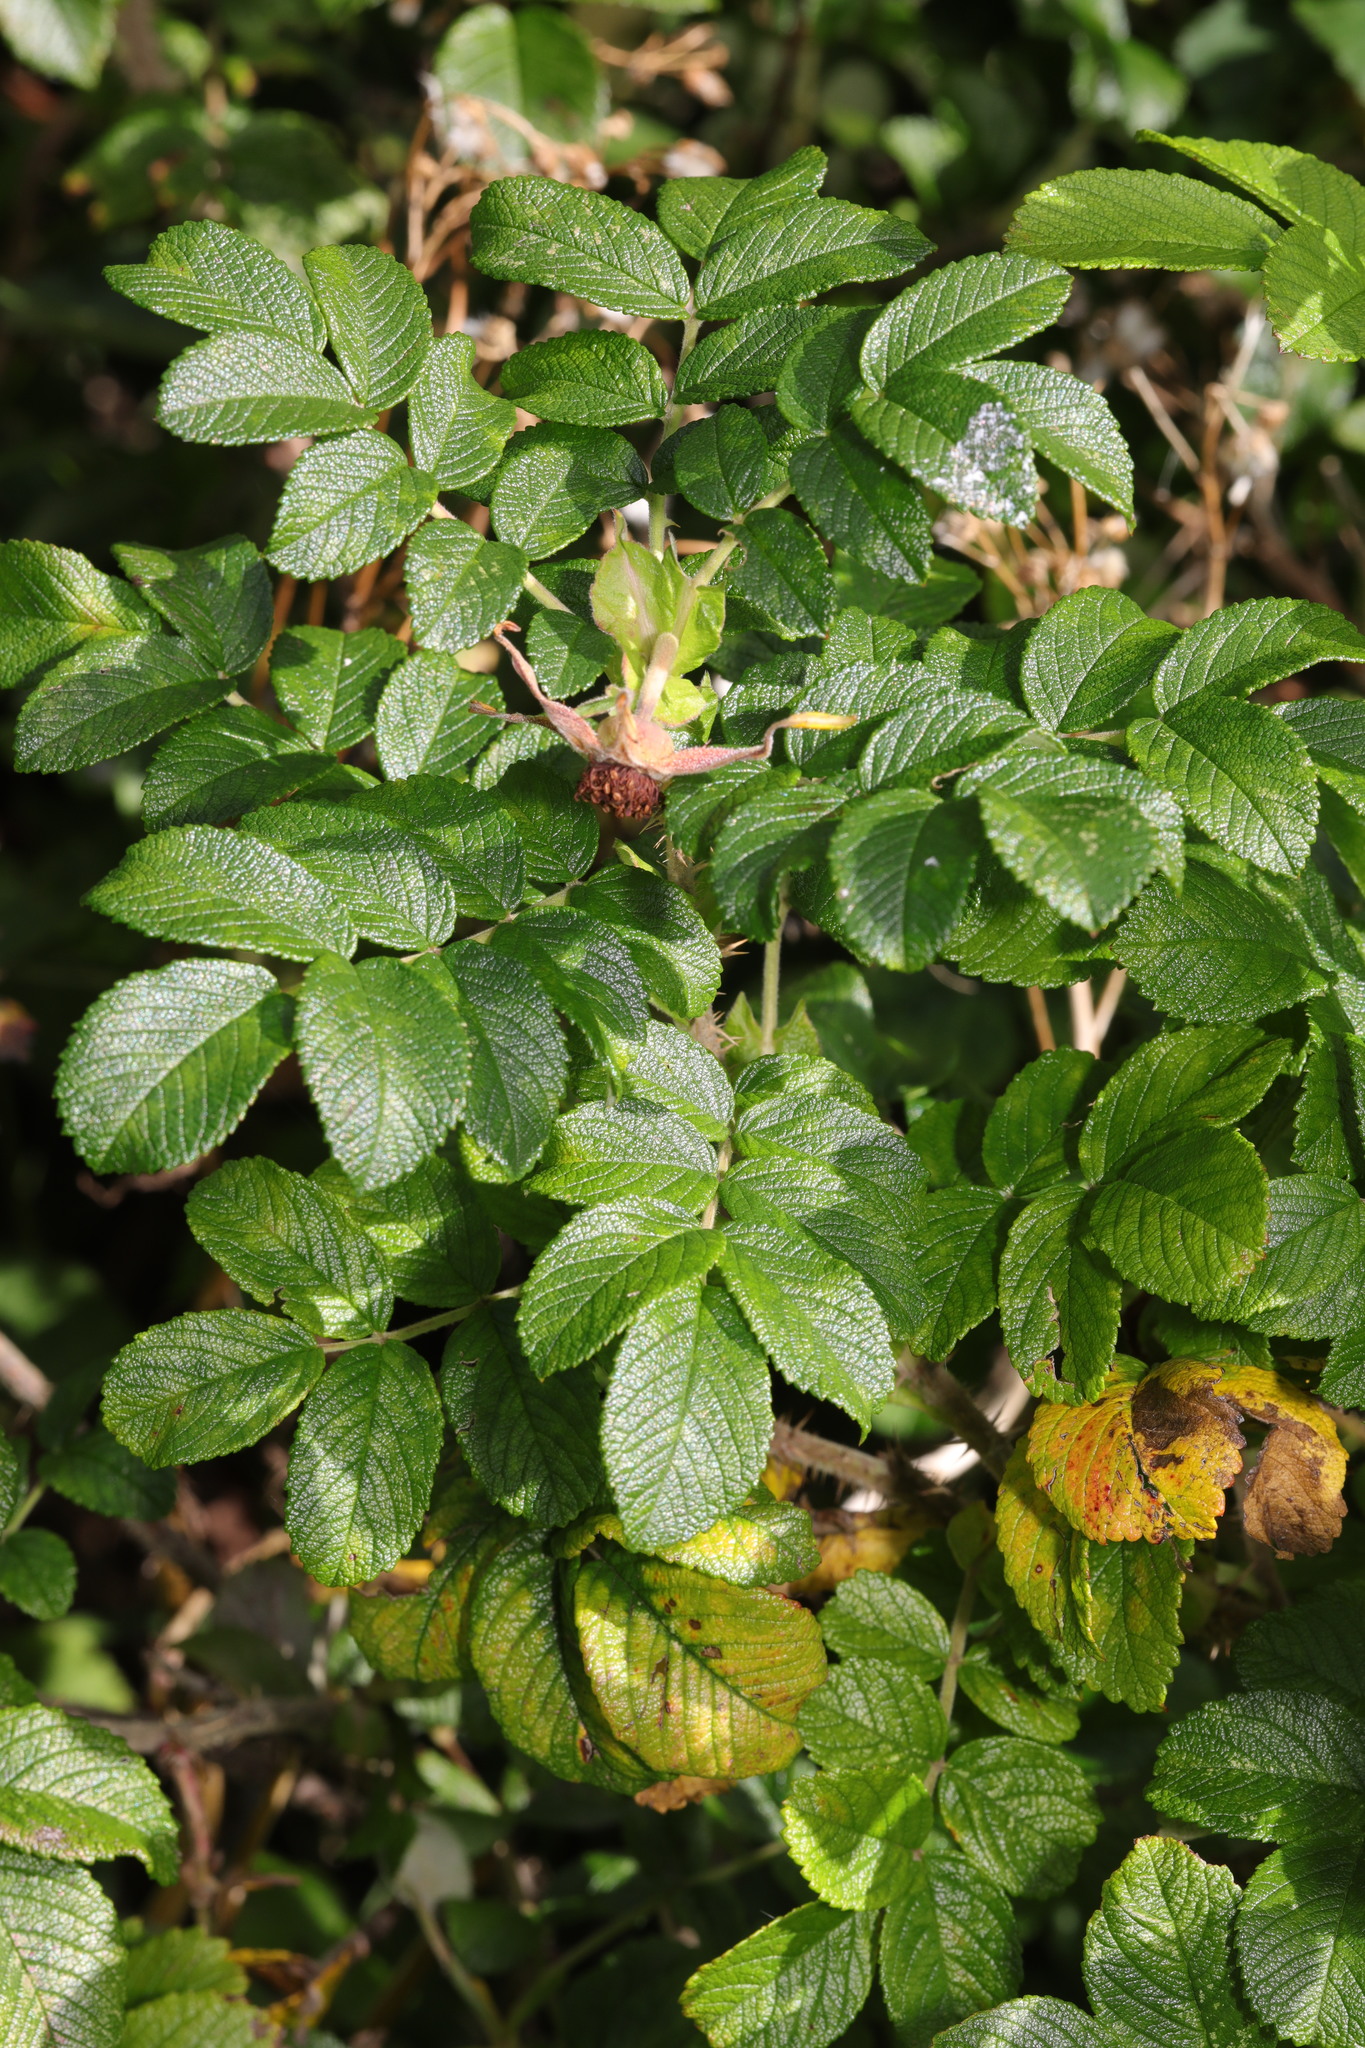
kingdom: Plantae
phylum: Tracheophyta
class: Magnoliopsida
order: Rosales
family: Rosaceae
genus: Rosa
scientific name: Rosa rugosa
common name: Japanese rose
